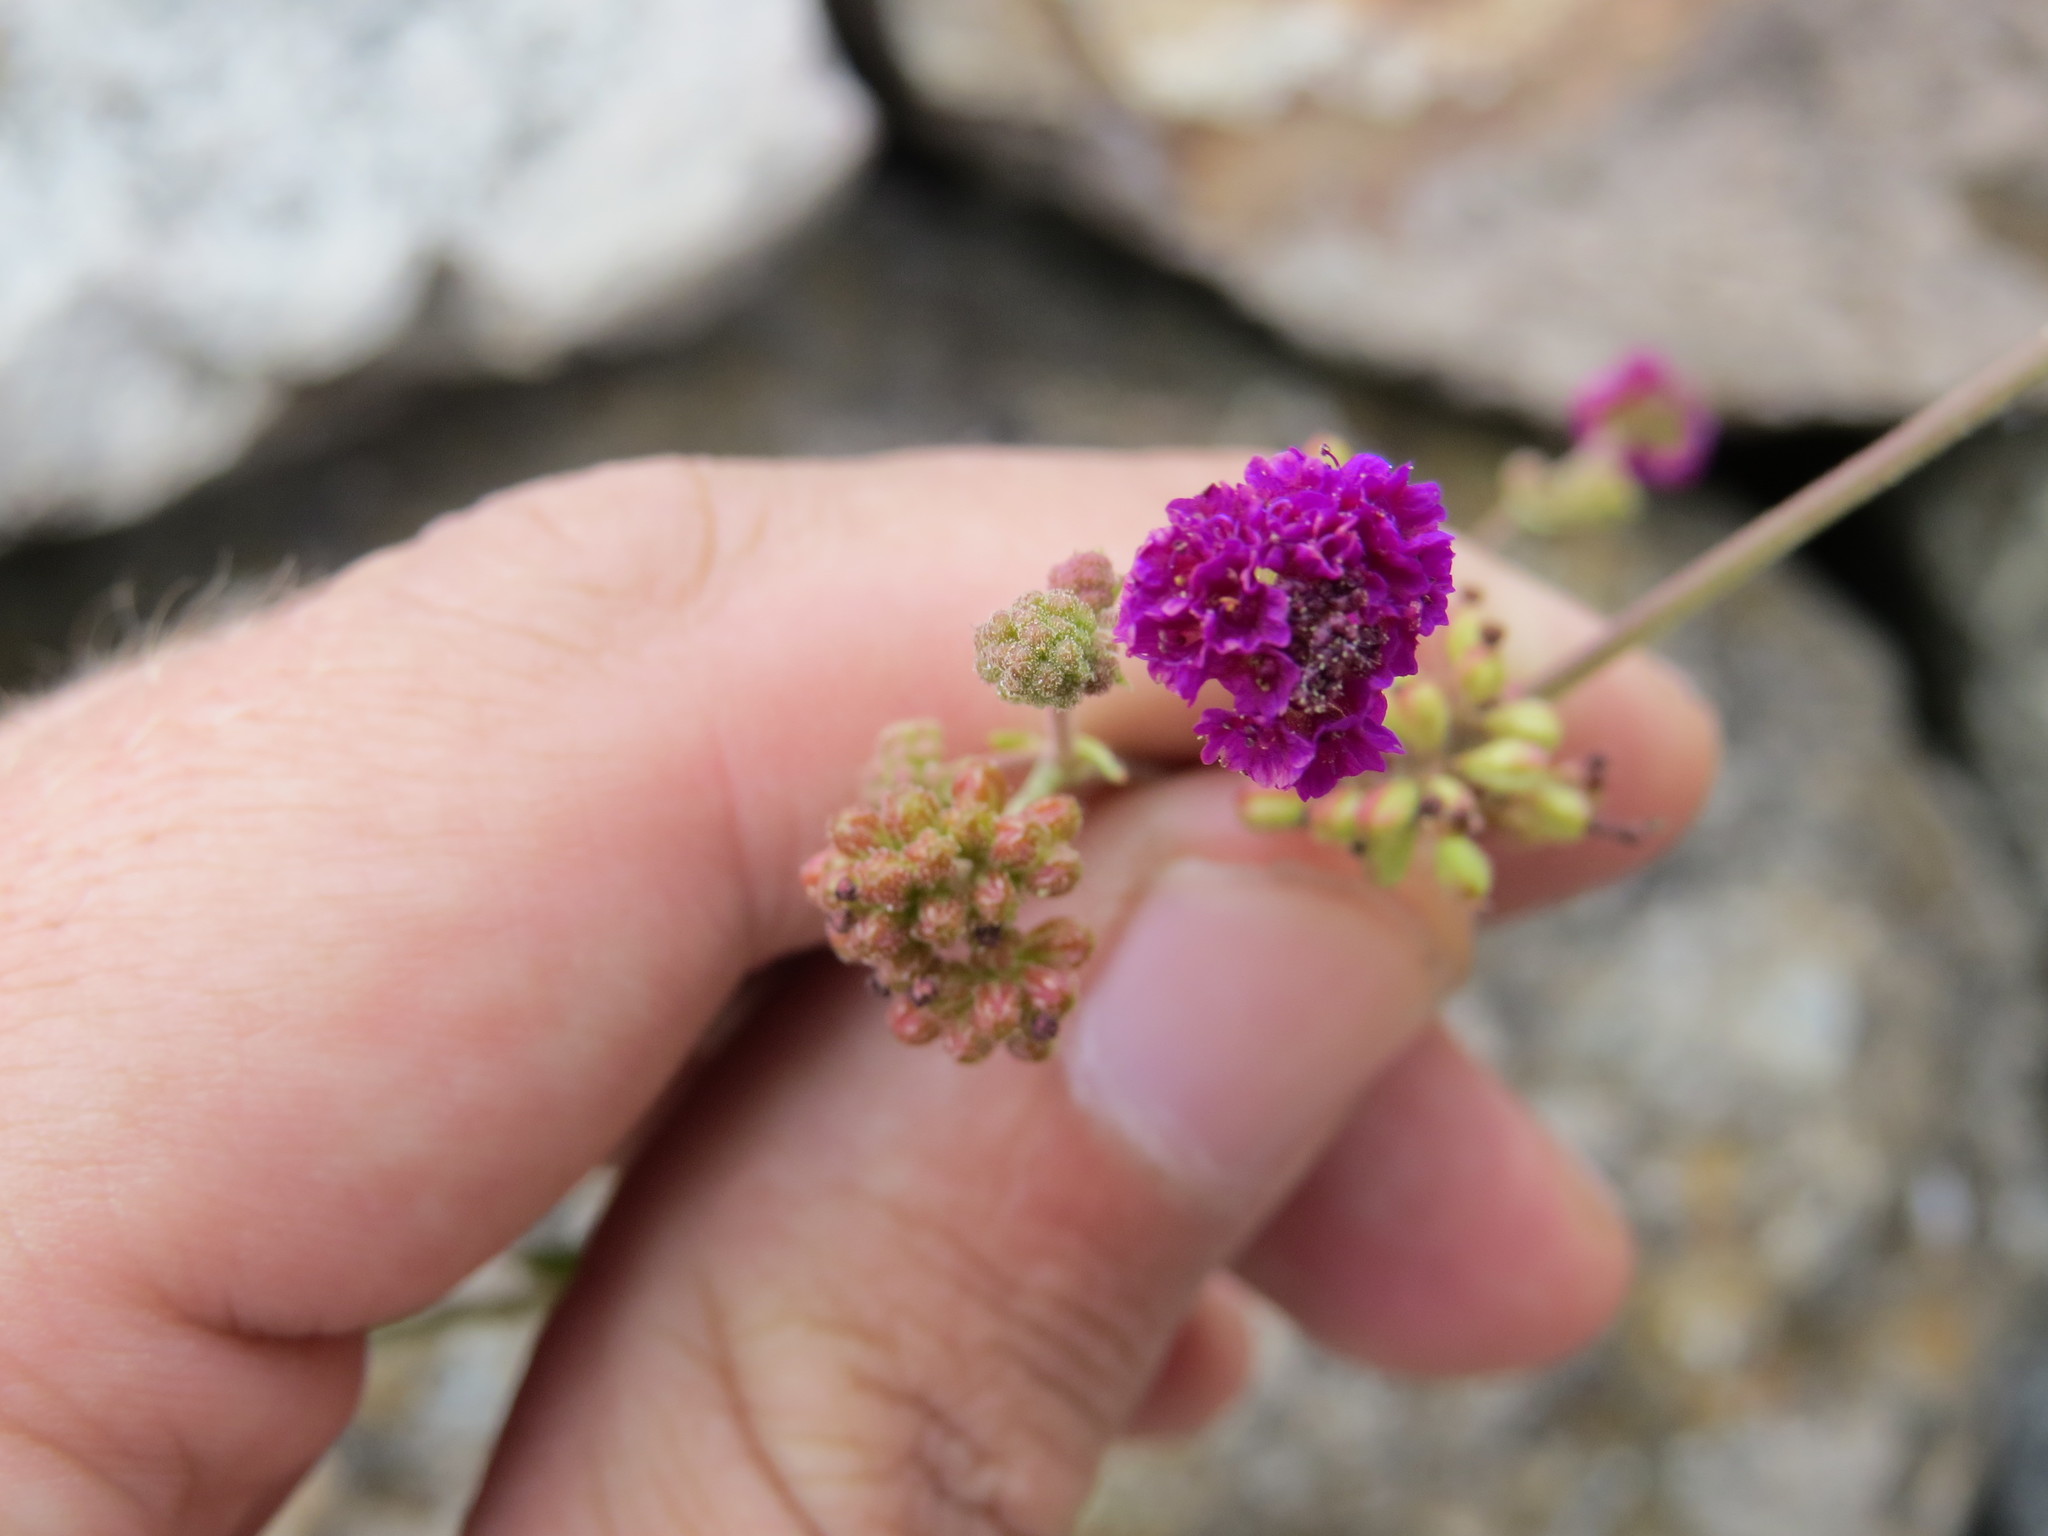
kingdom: Plantae
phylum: Tracheophyta
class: Magnoliopsida
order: Caryophyllales
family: Nyctaginaceae
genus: Boerhavia
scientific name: Boerhavia coccinea
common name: Scarlet spiderling
